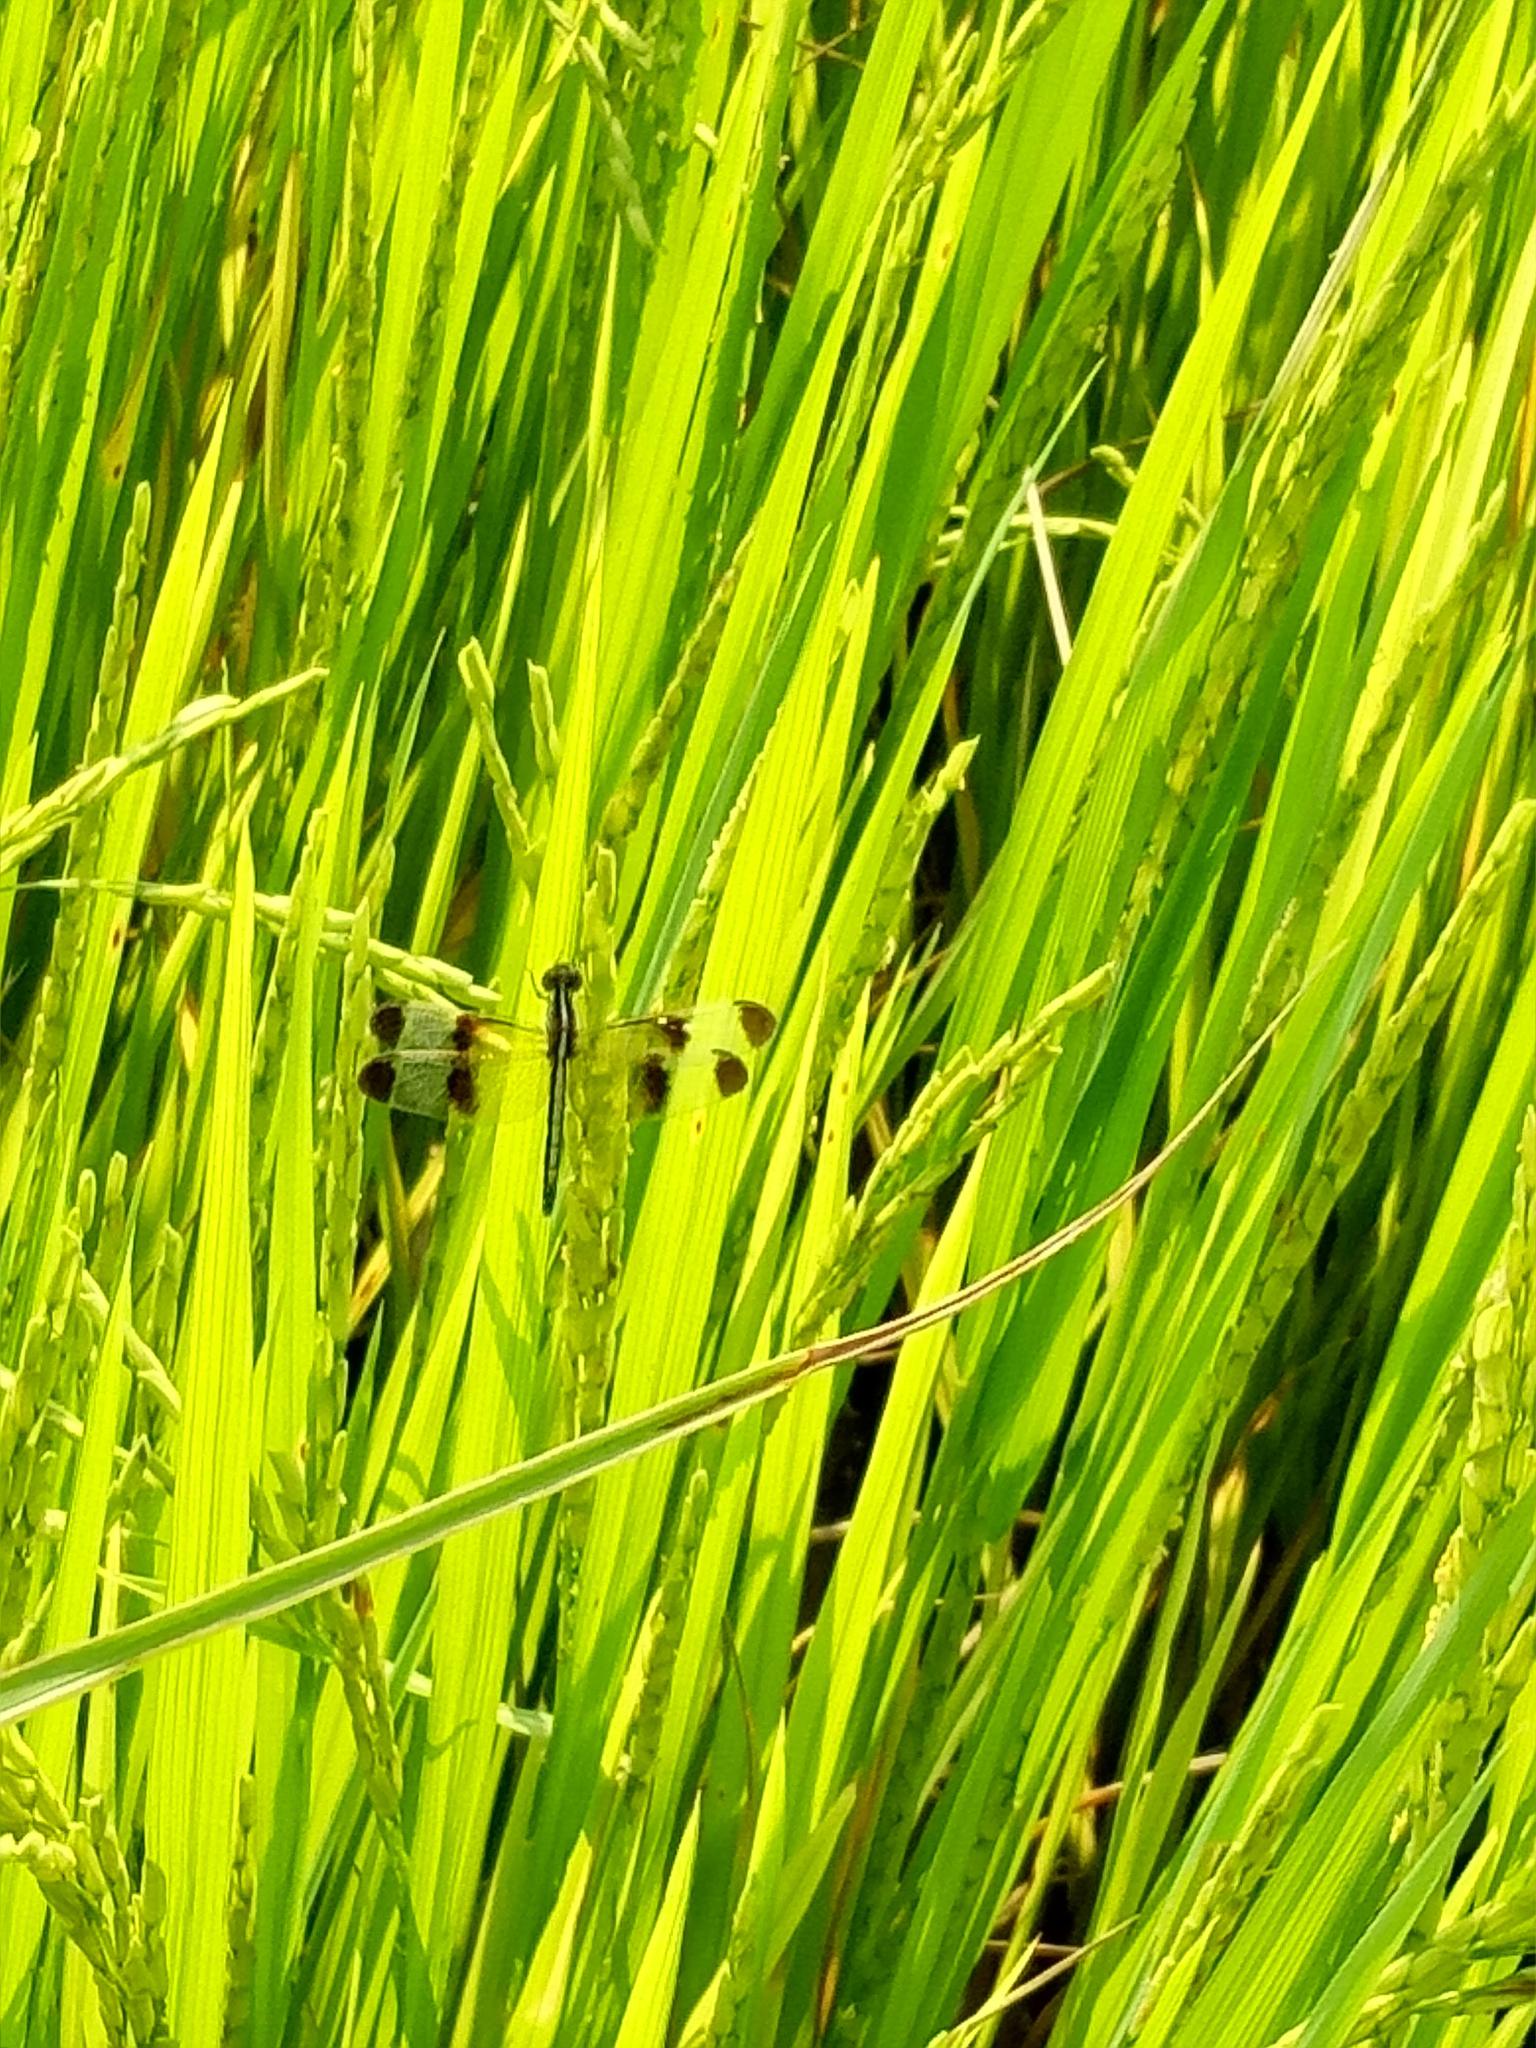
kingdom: Animalia
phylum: Arthropoda
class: Insecta
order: Odonata
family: Libellulidae
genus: Neurothemis
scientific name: Neurothemis tullia
